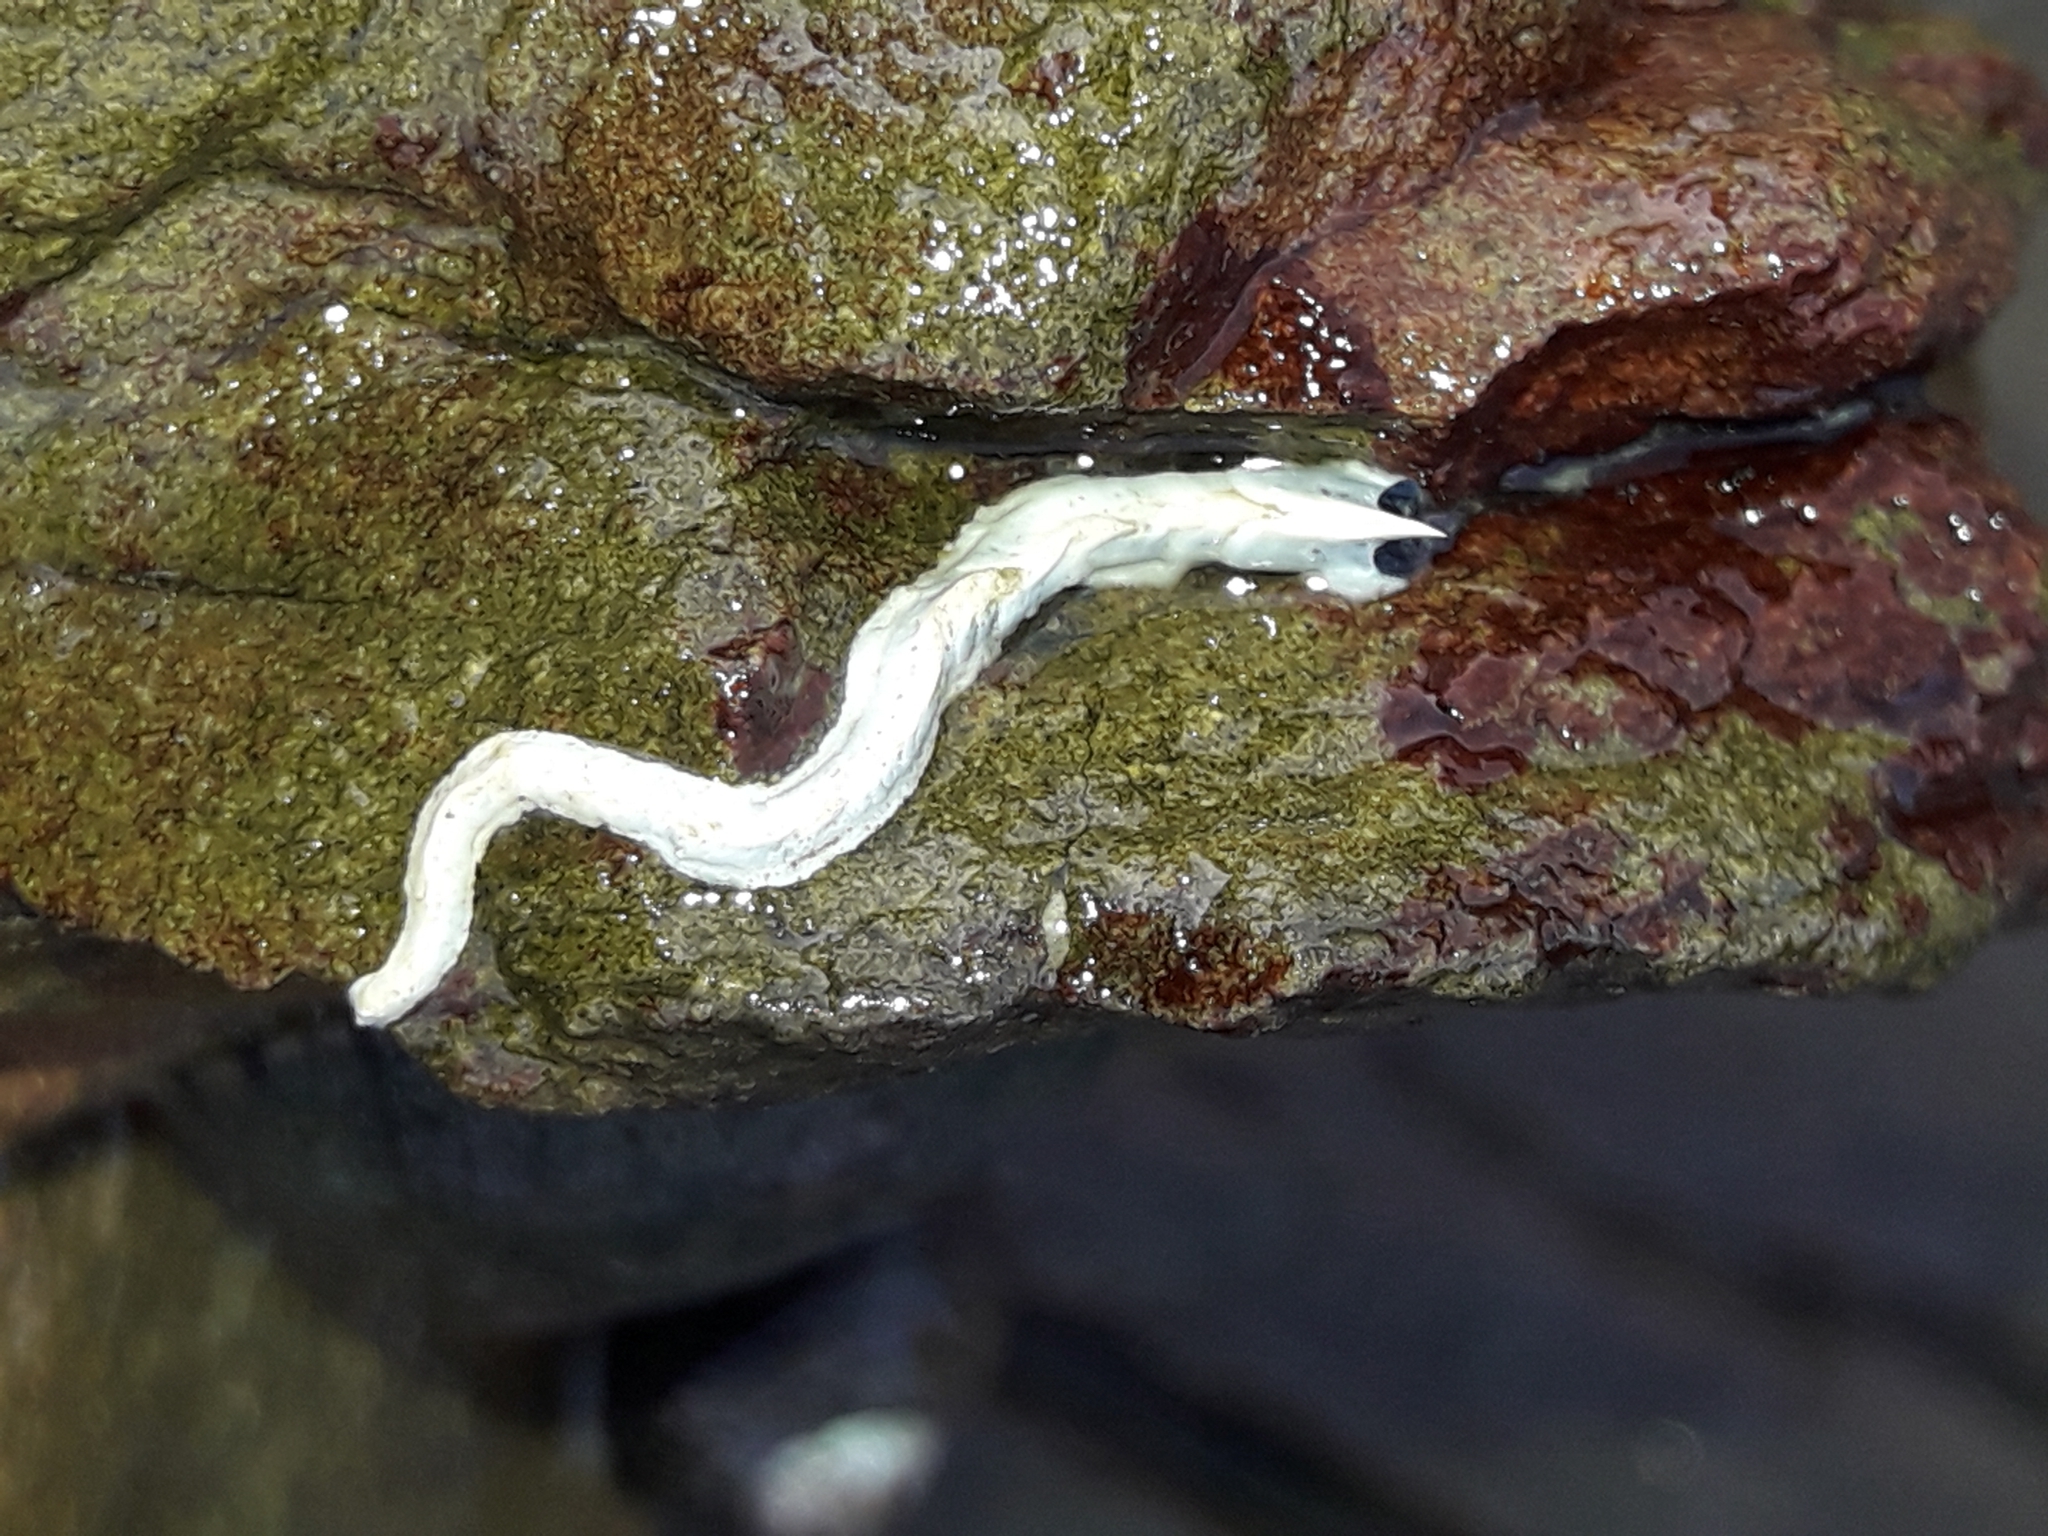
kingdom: Animalia
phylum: Annelida
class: Polychaeta
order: Sabellida
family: Serpulidae
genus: Spirobranchus
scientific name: Spirobranchus cariniferus
